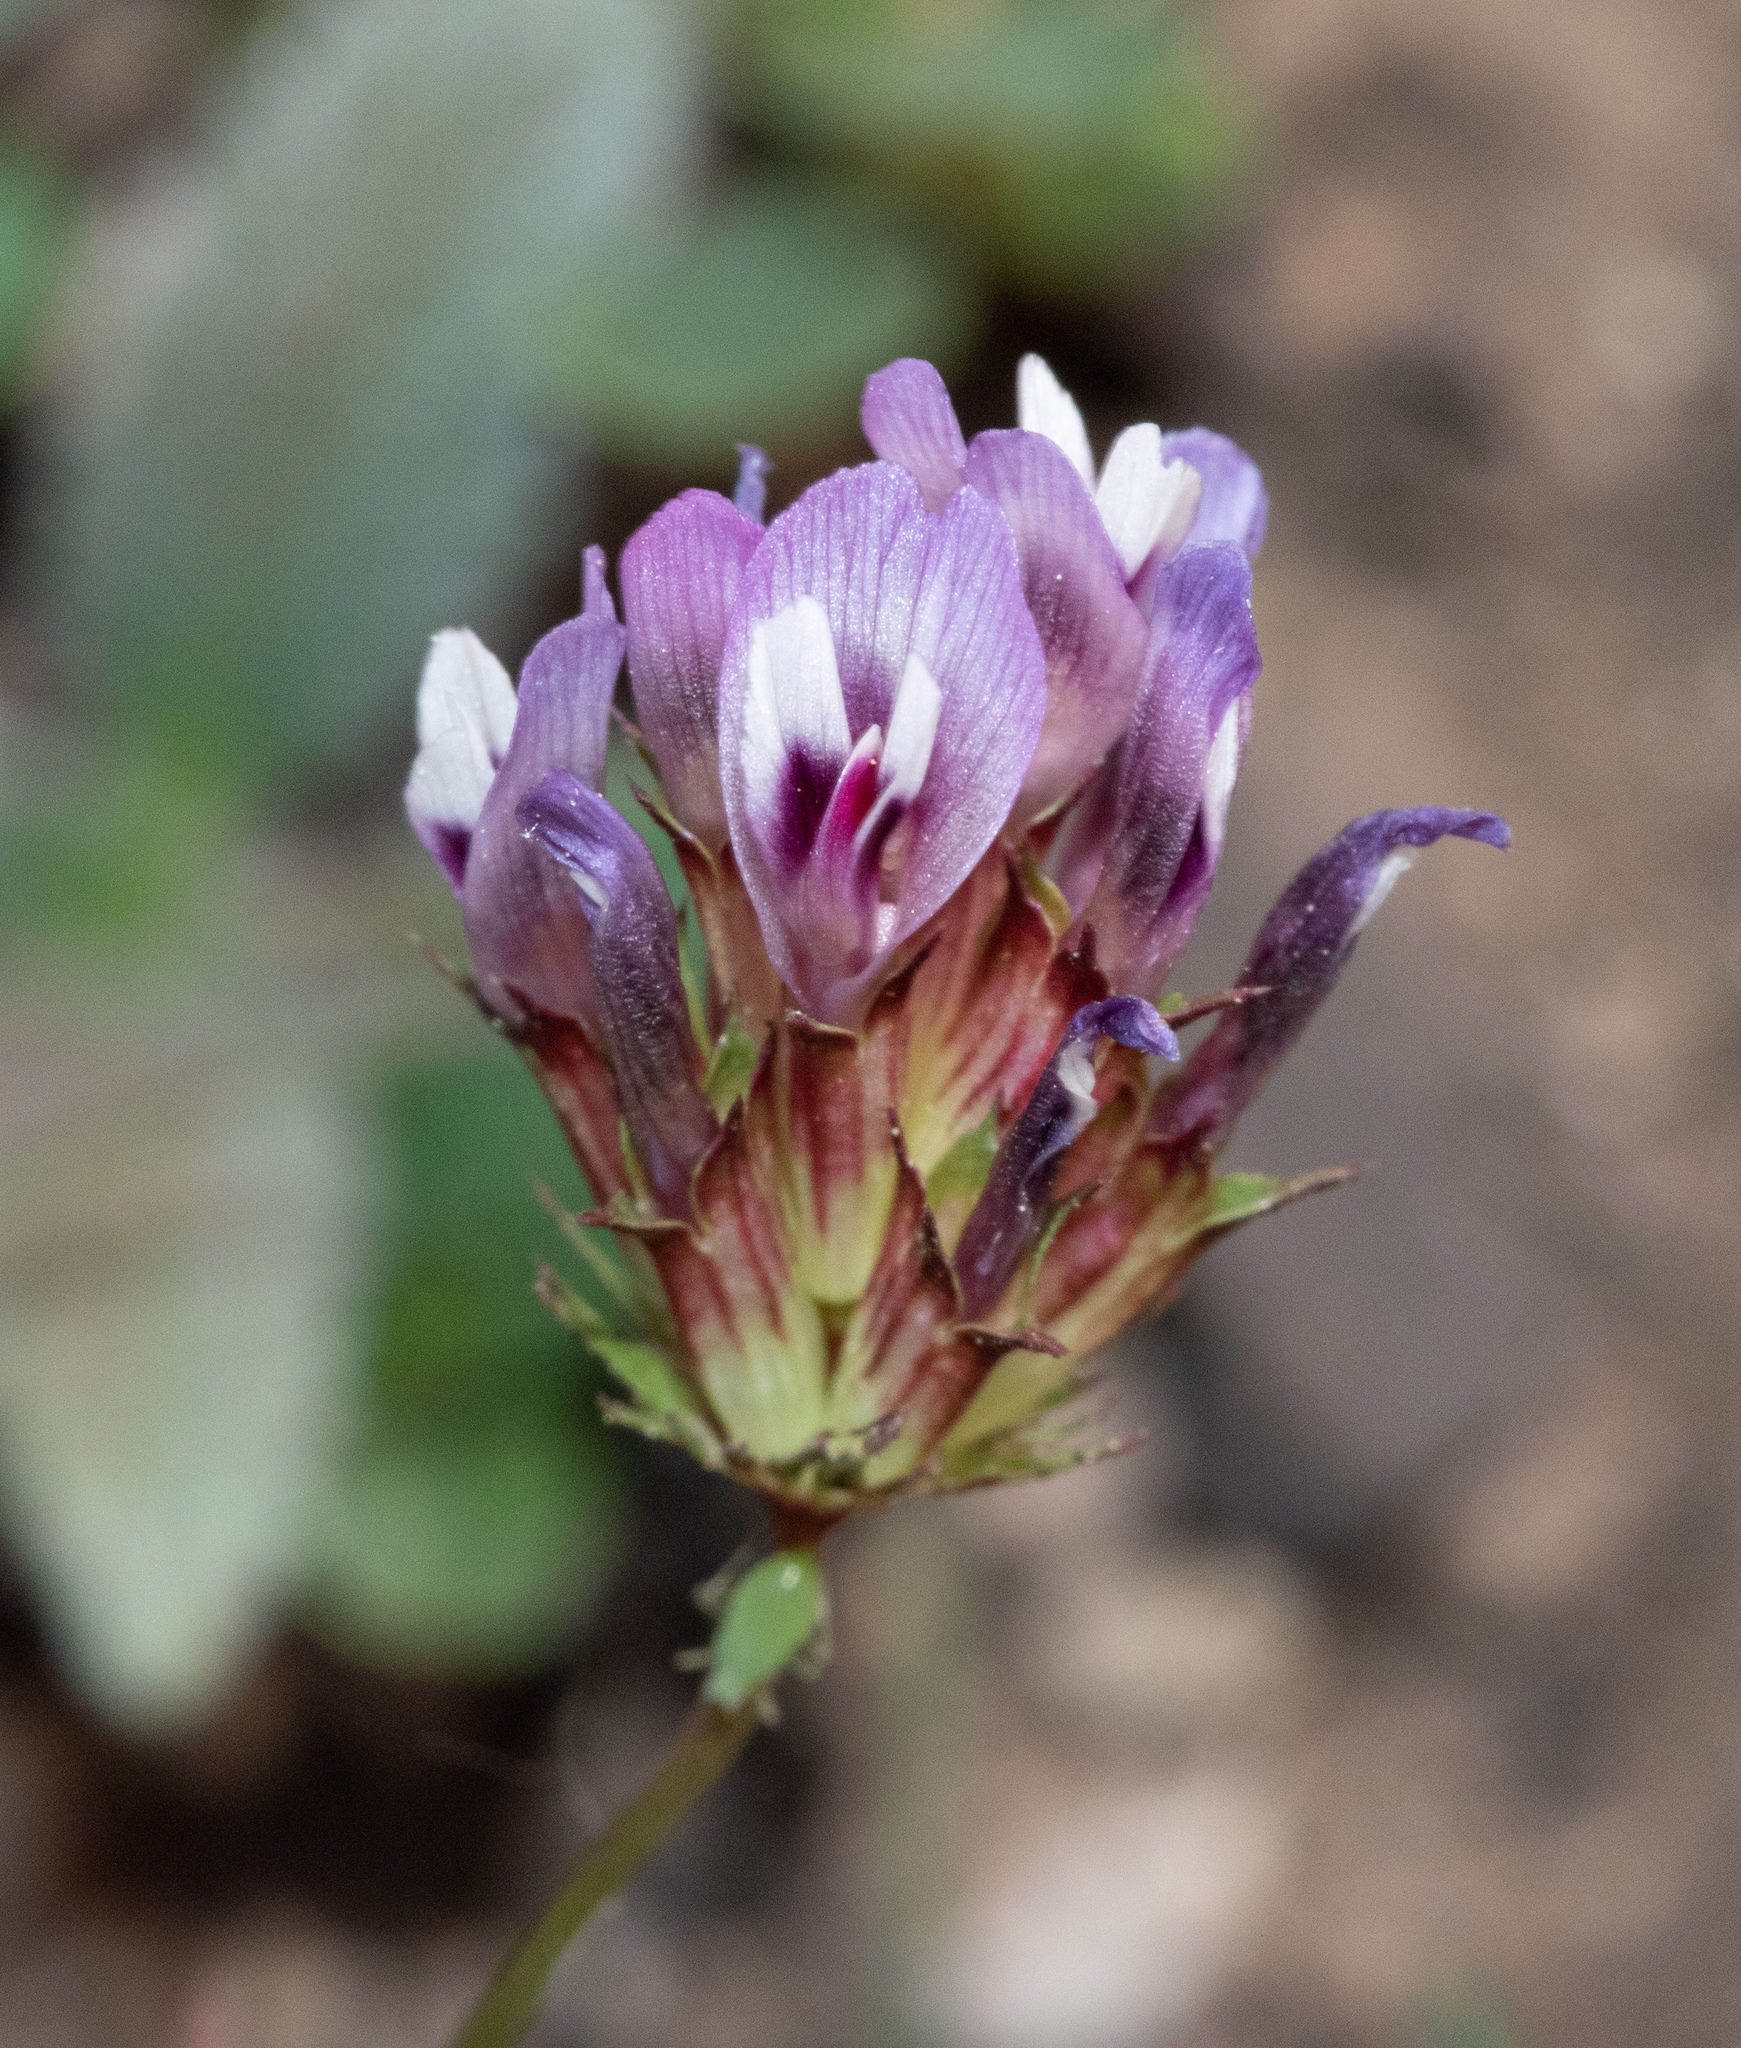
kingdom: Plantae
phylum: Tracheophyta
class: Magnoliopsida
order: Fabales
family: Fabaceae
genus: Trifolium
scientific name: Trifolium willdenovii
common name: Tomcat clover
